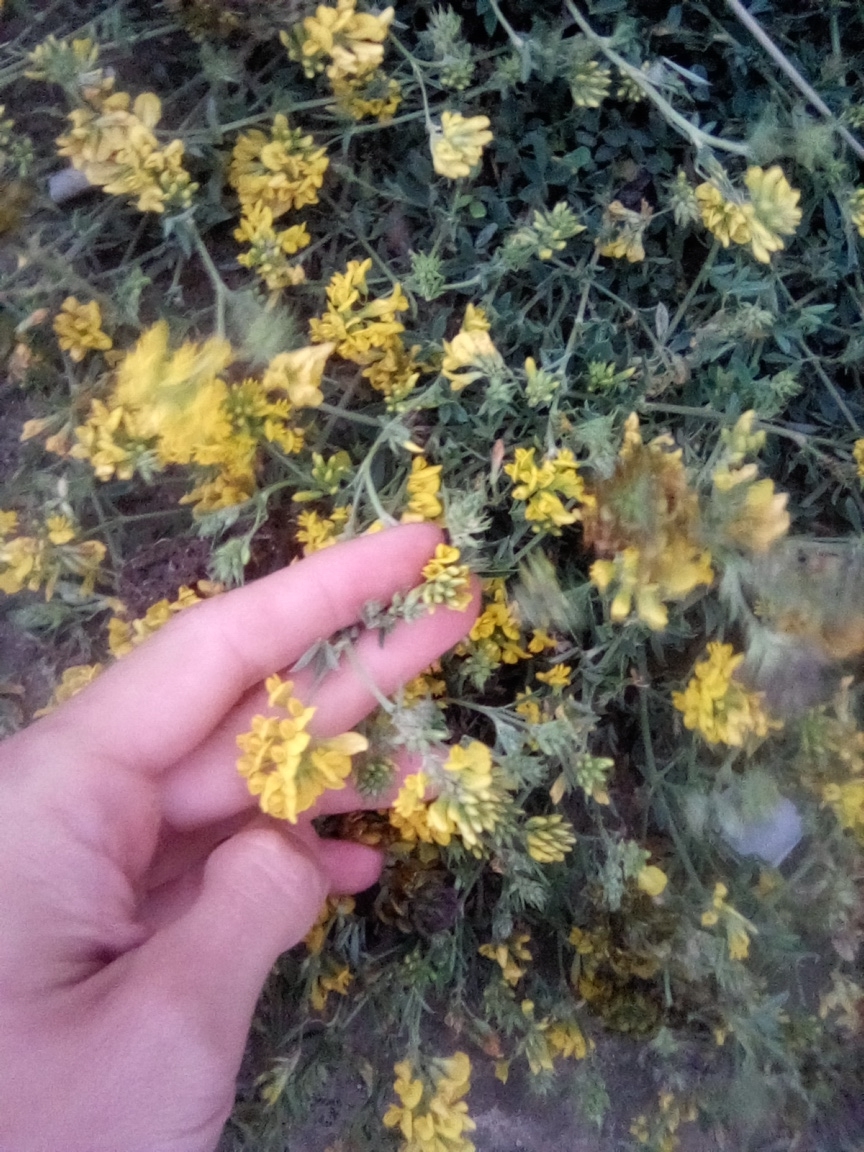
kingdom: Plantae
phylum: Tracheophyta
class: Magnoliopsida
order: Fabales
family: Fabaceae
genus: Medicago
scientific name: Medicago falcata
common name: Sickle medick
